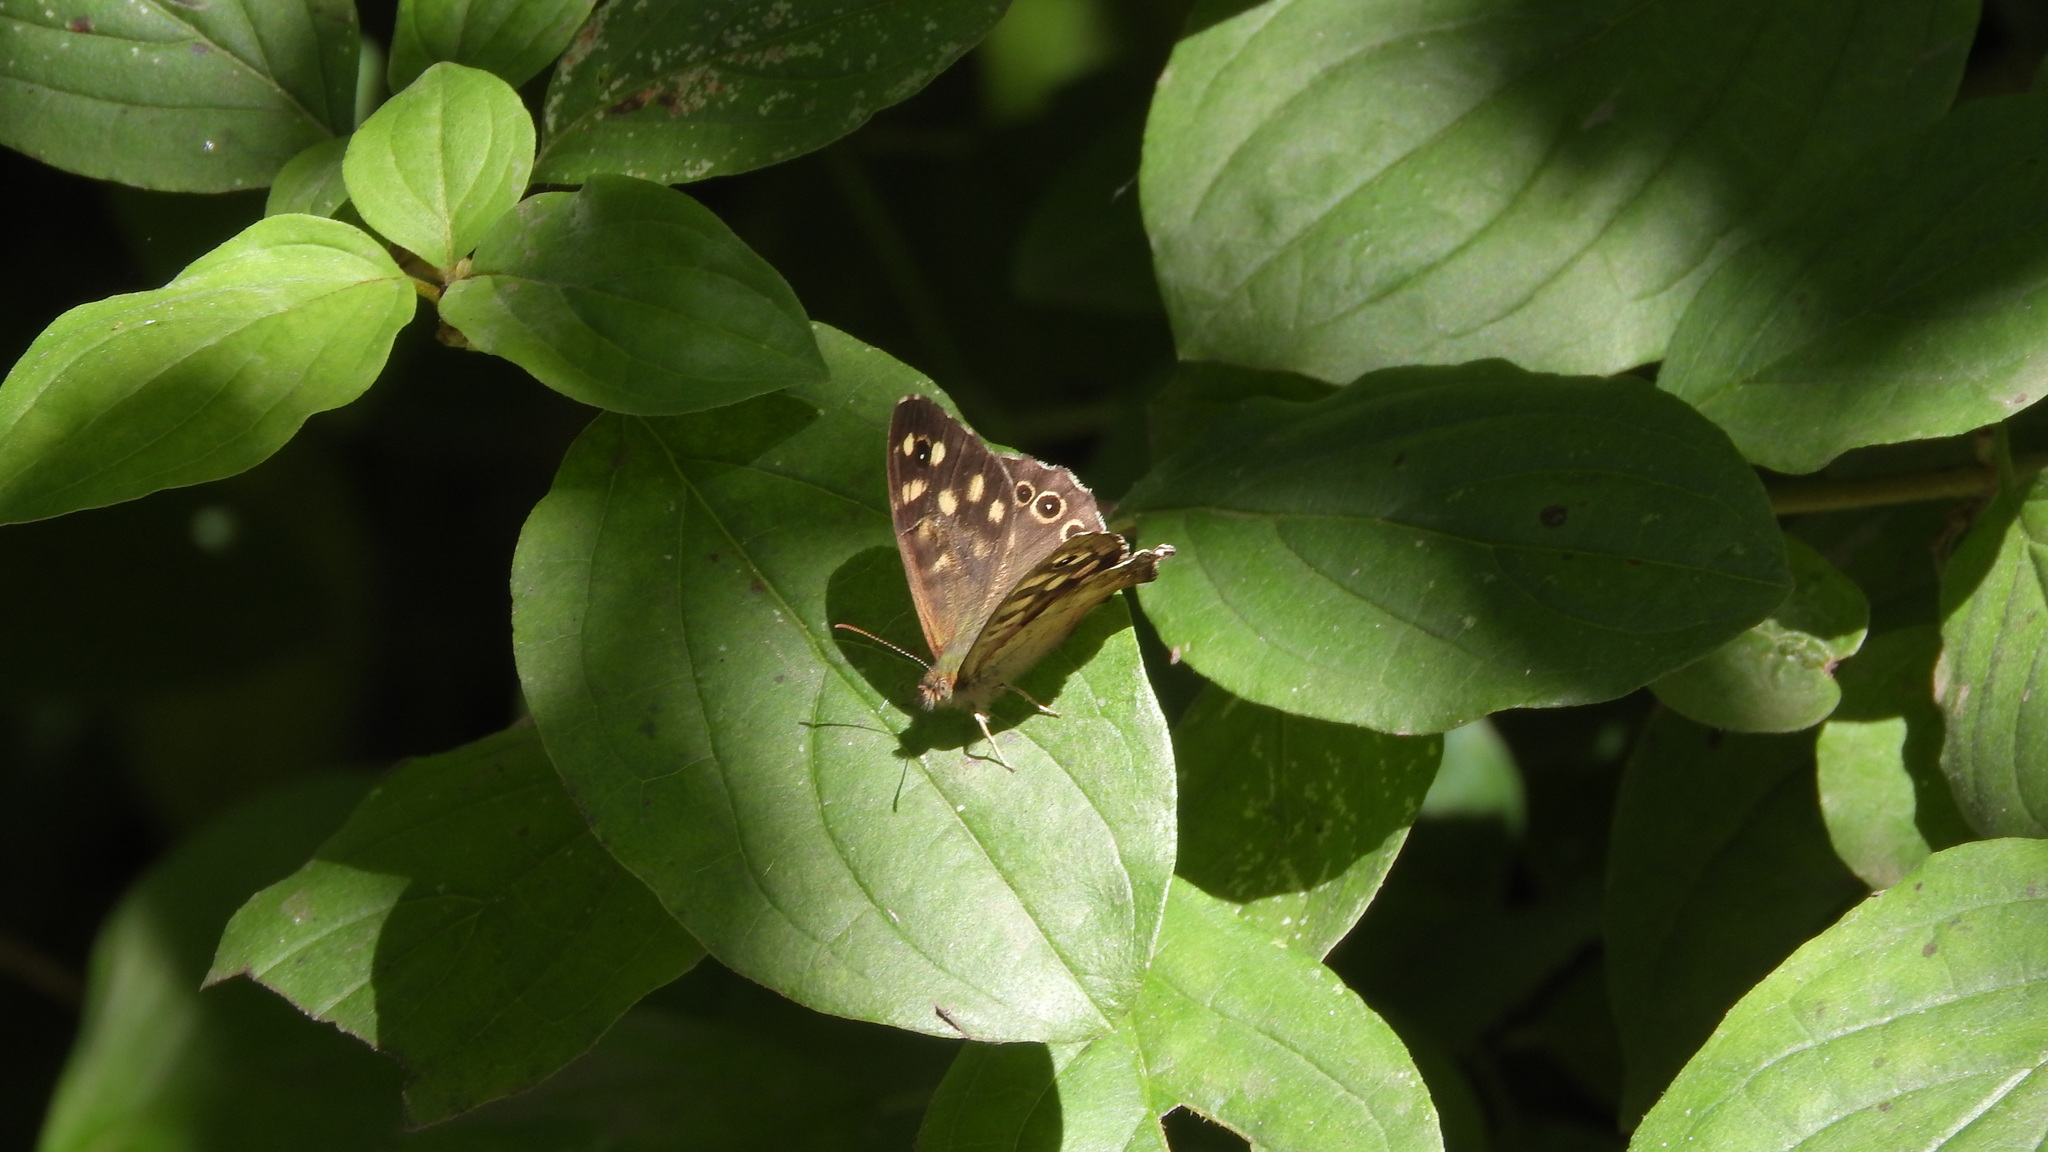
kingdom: Animalia
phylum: Arthropoda
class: Insecta
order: Lepidoptera
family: Nymphalidae
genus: Pararge
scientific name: Pararge aegeria
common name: Speckled wood
